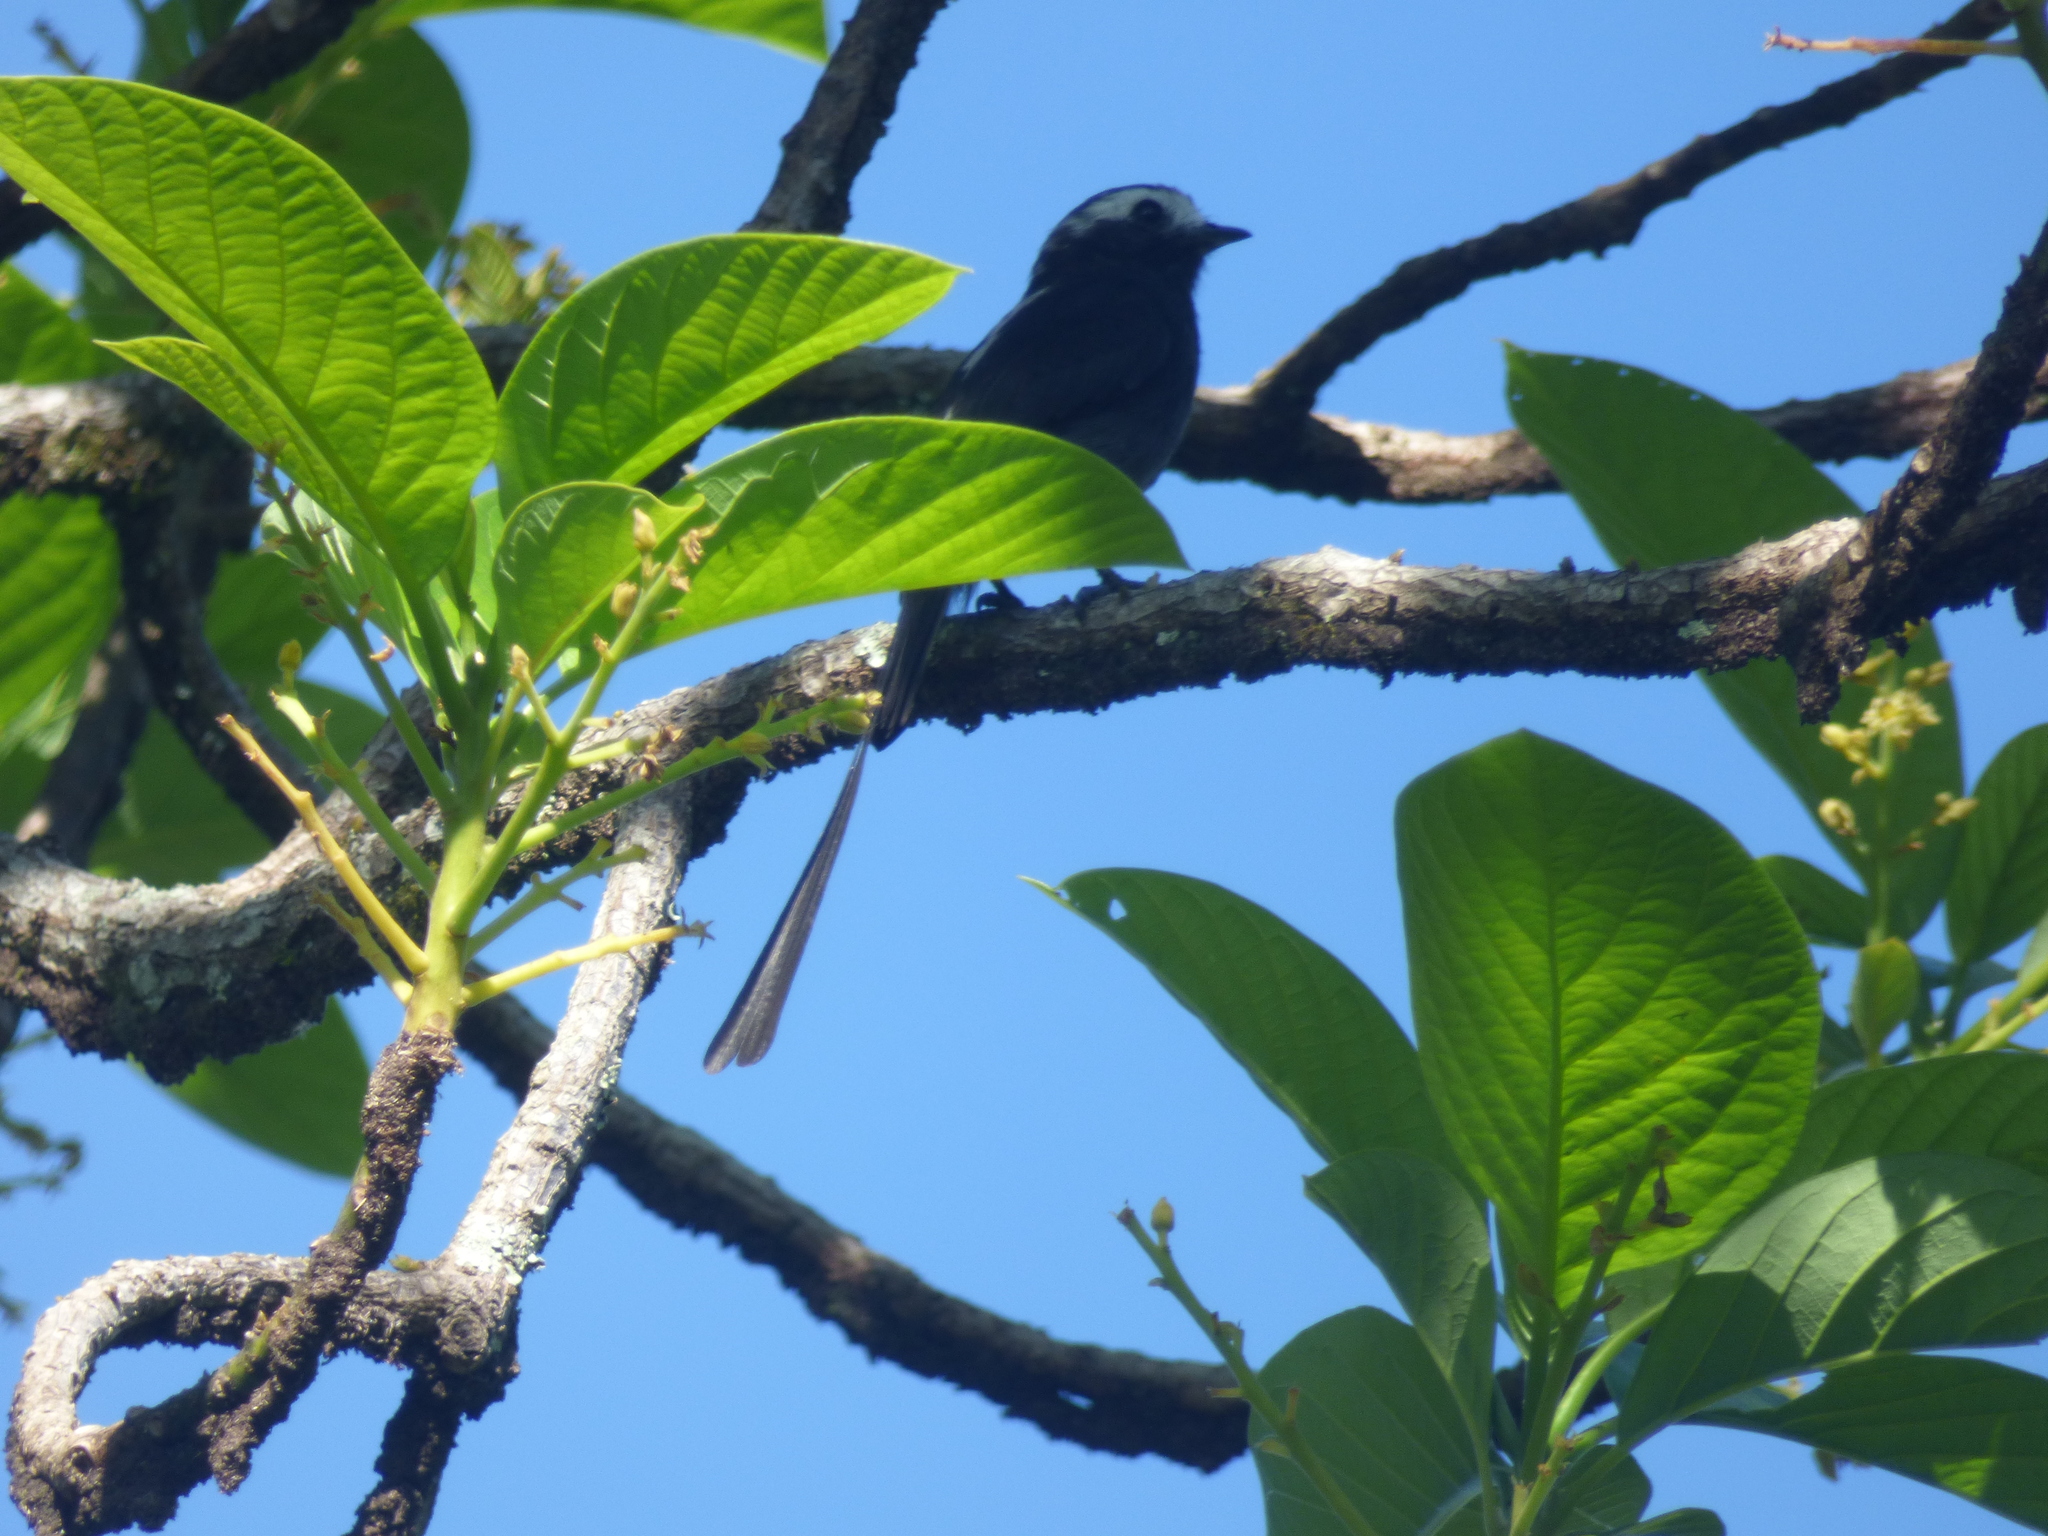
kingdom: Animalia
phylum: Chordata
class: Aves
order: Passeriformes
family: Tyrannidae
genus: Colonia
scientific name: Colonia colonus
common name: Long-tailed tyrant
